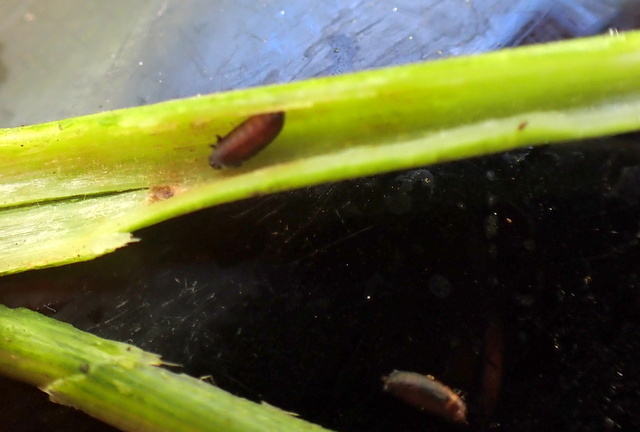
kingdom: Animalia
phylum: Arthropoda
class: Insecta
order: Coleoptera
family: Chrysomelidae
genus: Agasicles
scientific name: Agasicles hygrophila
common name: Alligatorweed flea beetle
